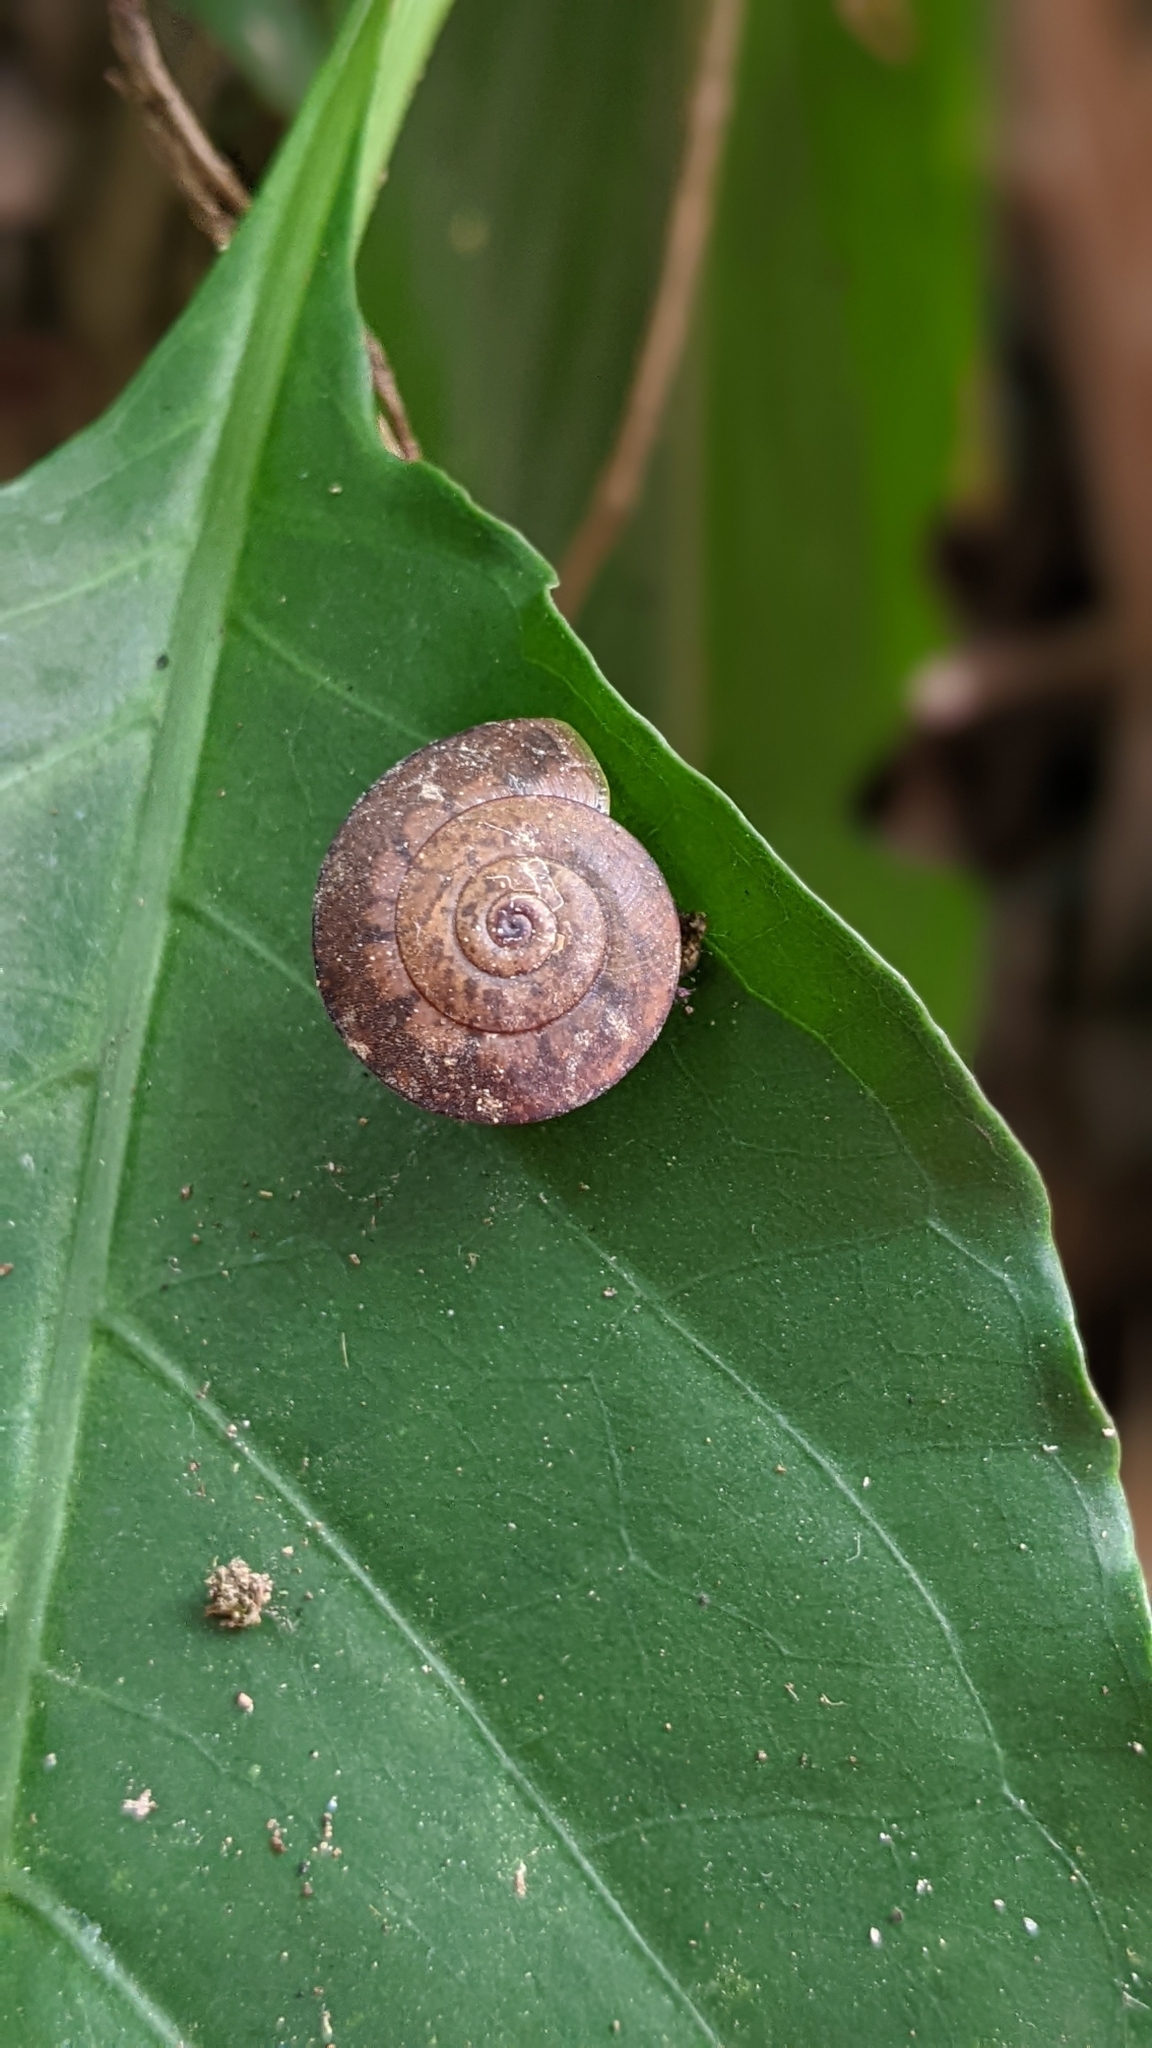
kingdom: Animalia
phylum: Mollusca
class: Gastropoda
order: Stylommatophora
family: Camaenidae
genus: Satsuma
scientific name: Satsuma mellea
